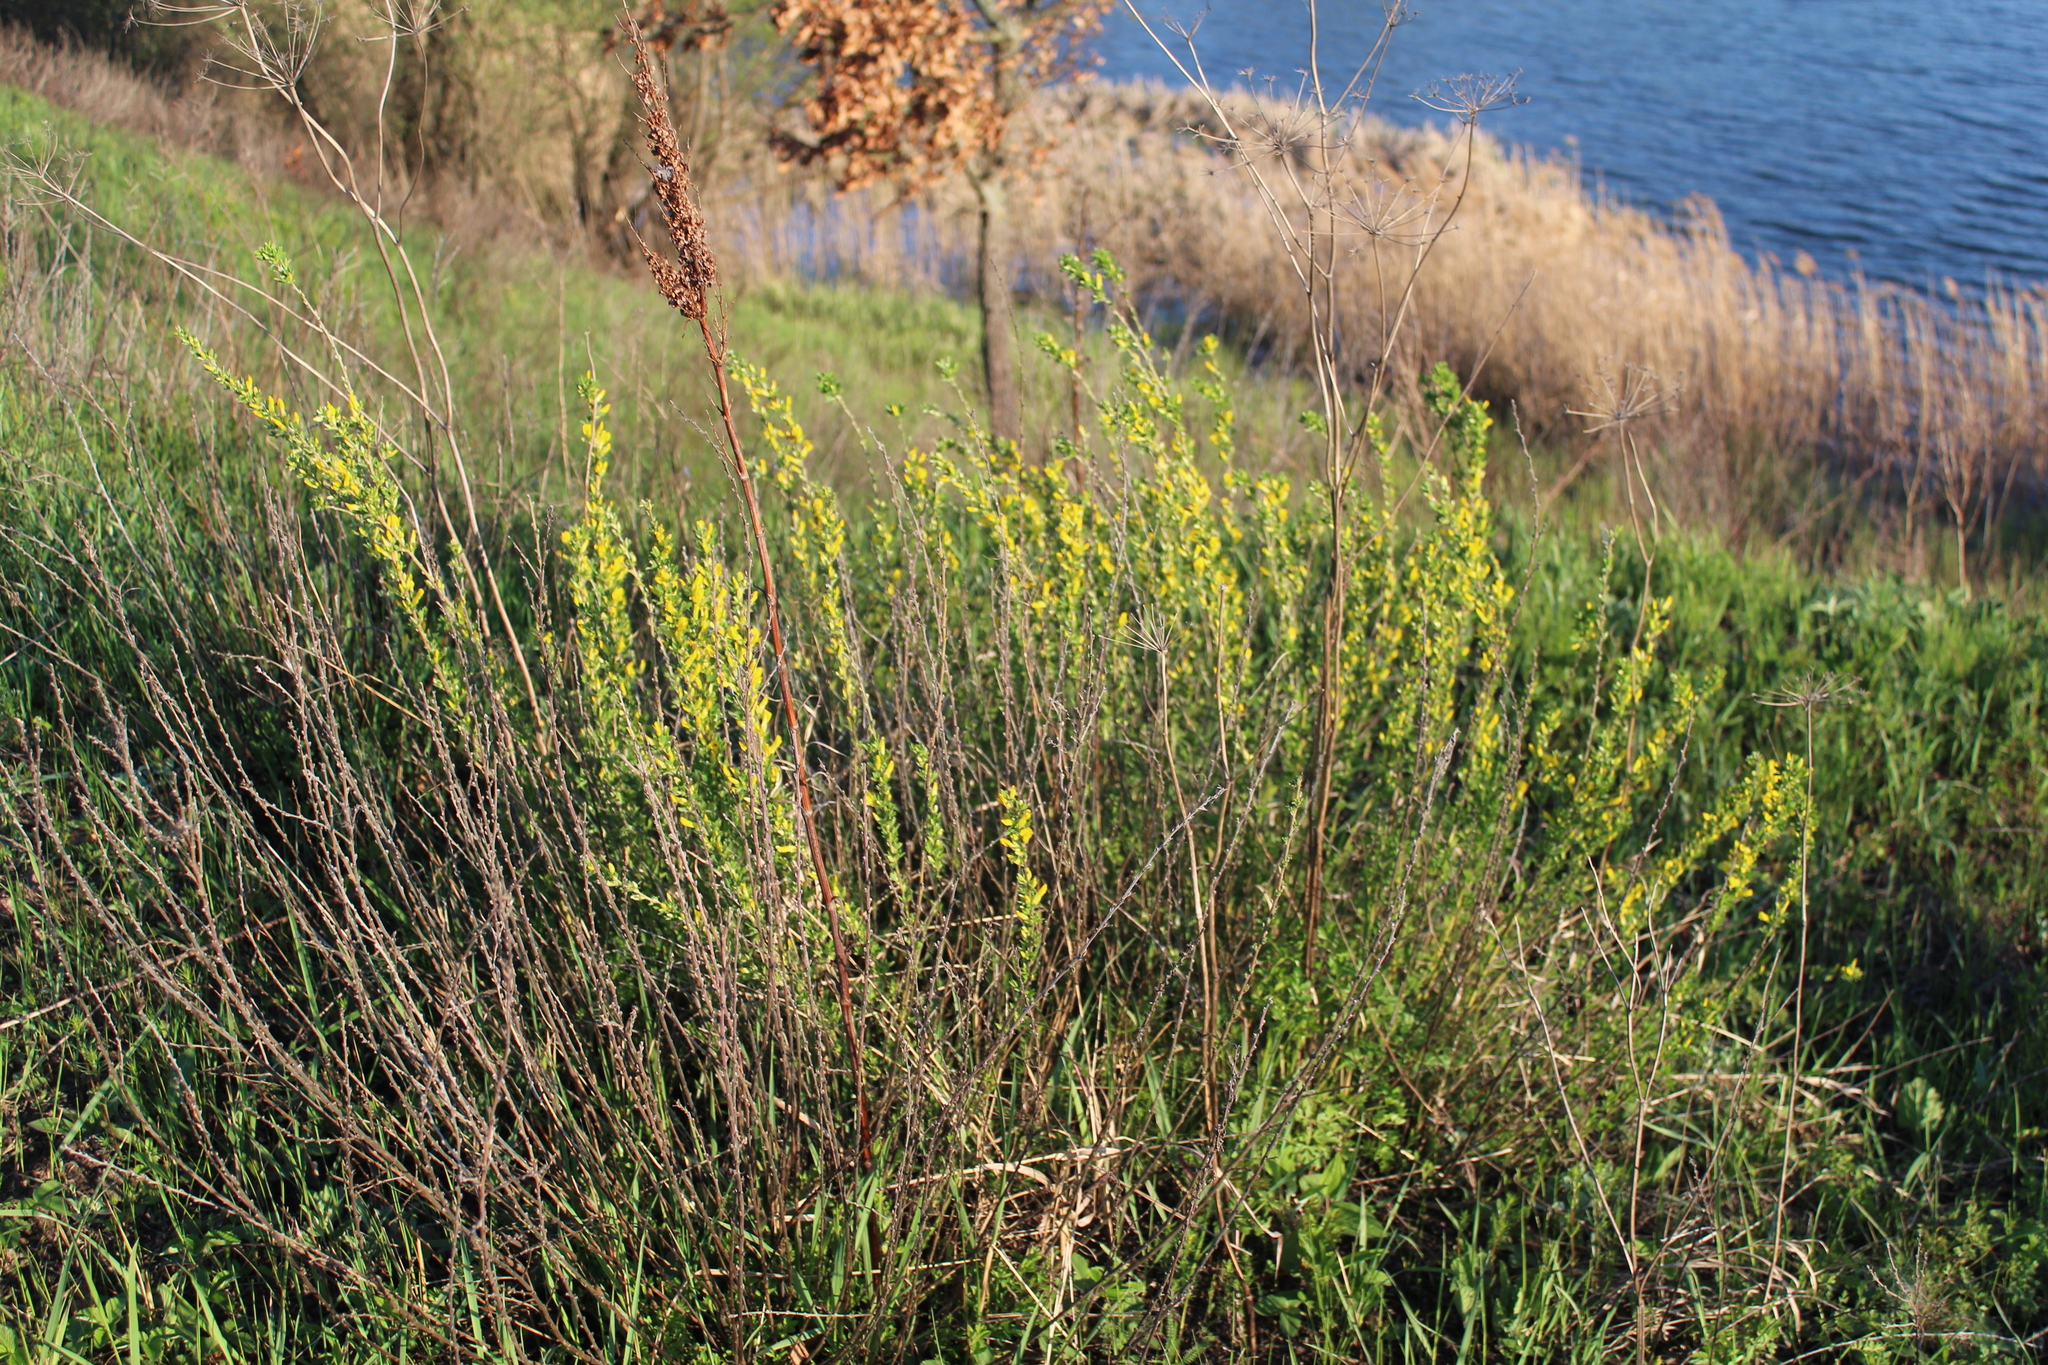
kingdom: Plantae
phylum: Tracheophyta
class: Magnoliopsida
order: Fabales
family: Fabaceae
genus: Chamaecytisus
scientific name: Chamaecytisus ruthenicus
